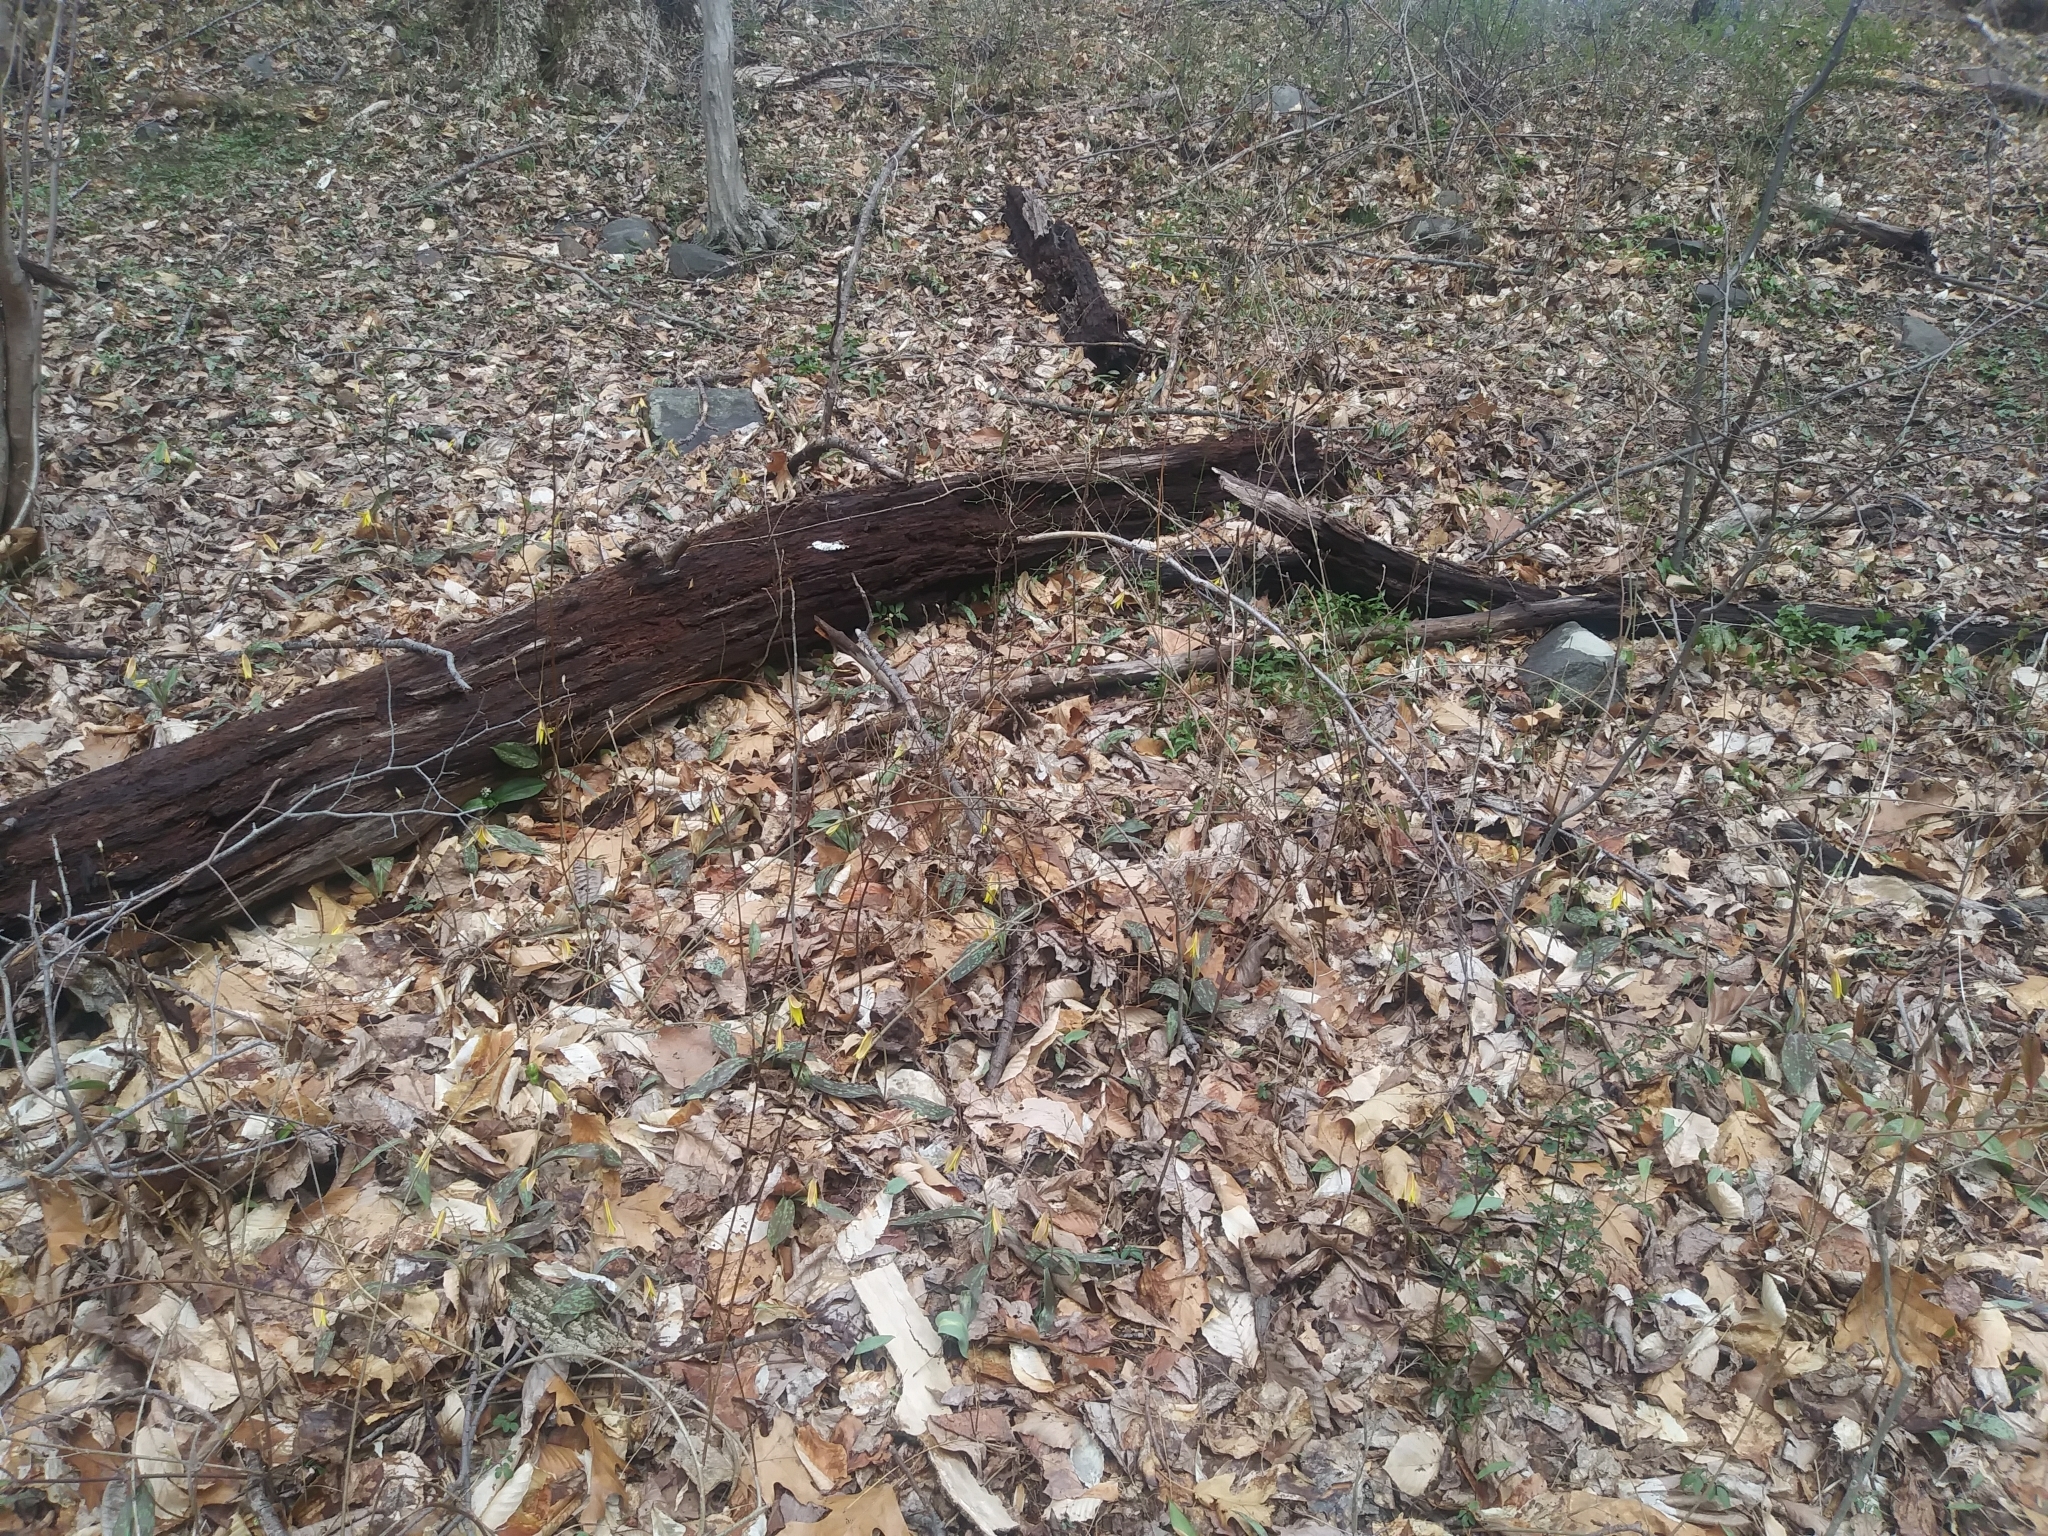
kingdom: Plantae
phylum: Tracheophyta
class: Liliopsida
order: Liliales
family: Liliaceae
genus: Erythronium
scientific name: Erythronium americanum
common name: Yellow adder's-tongue
